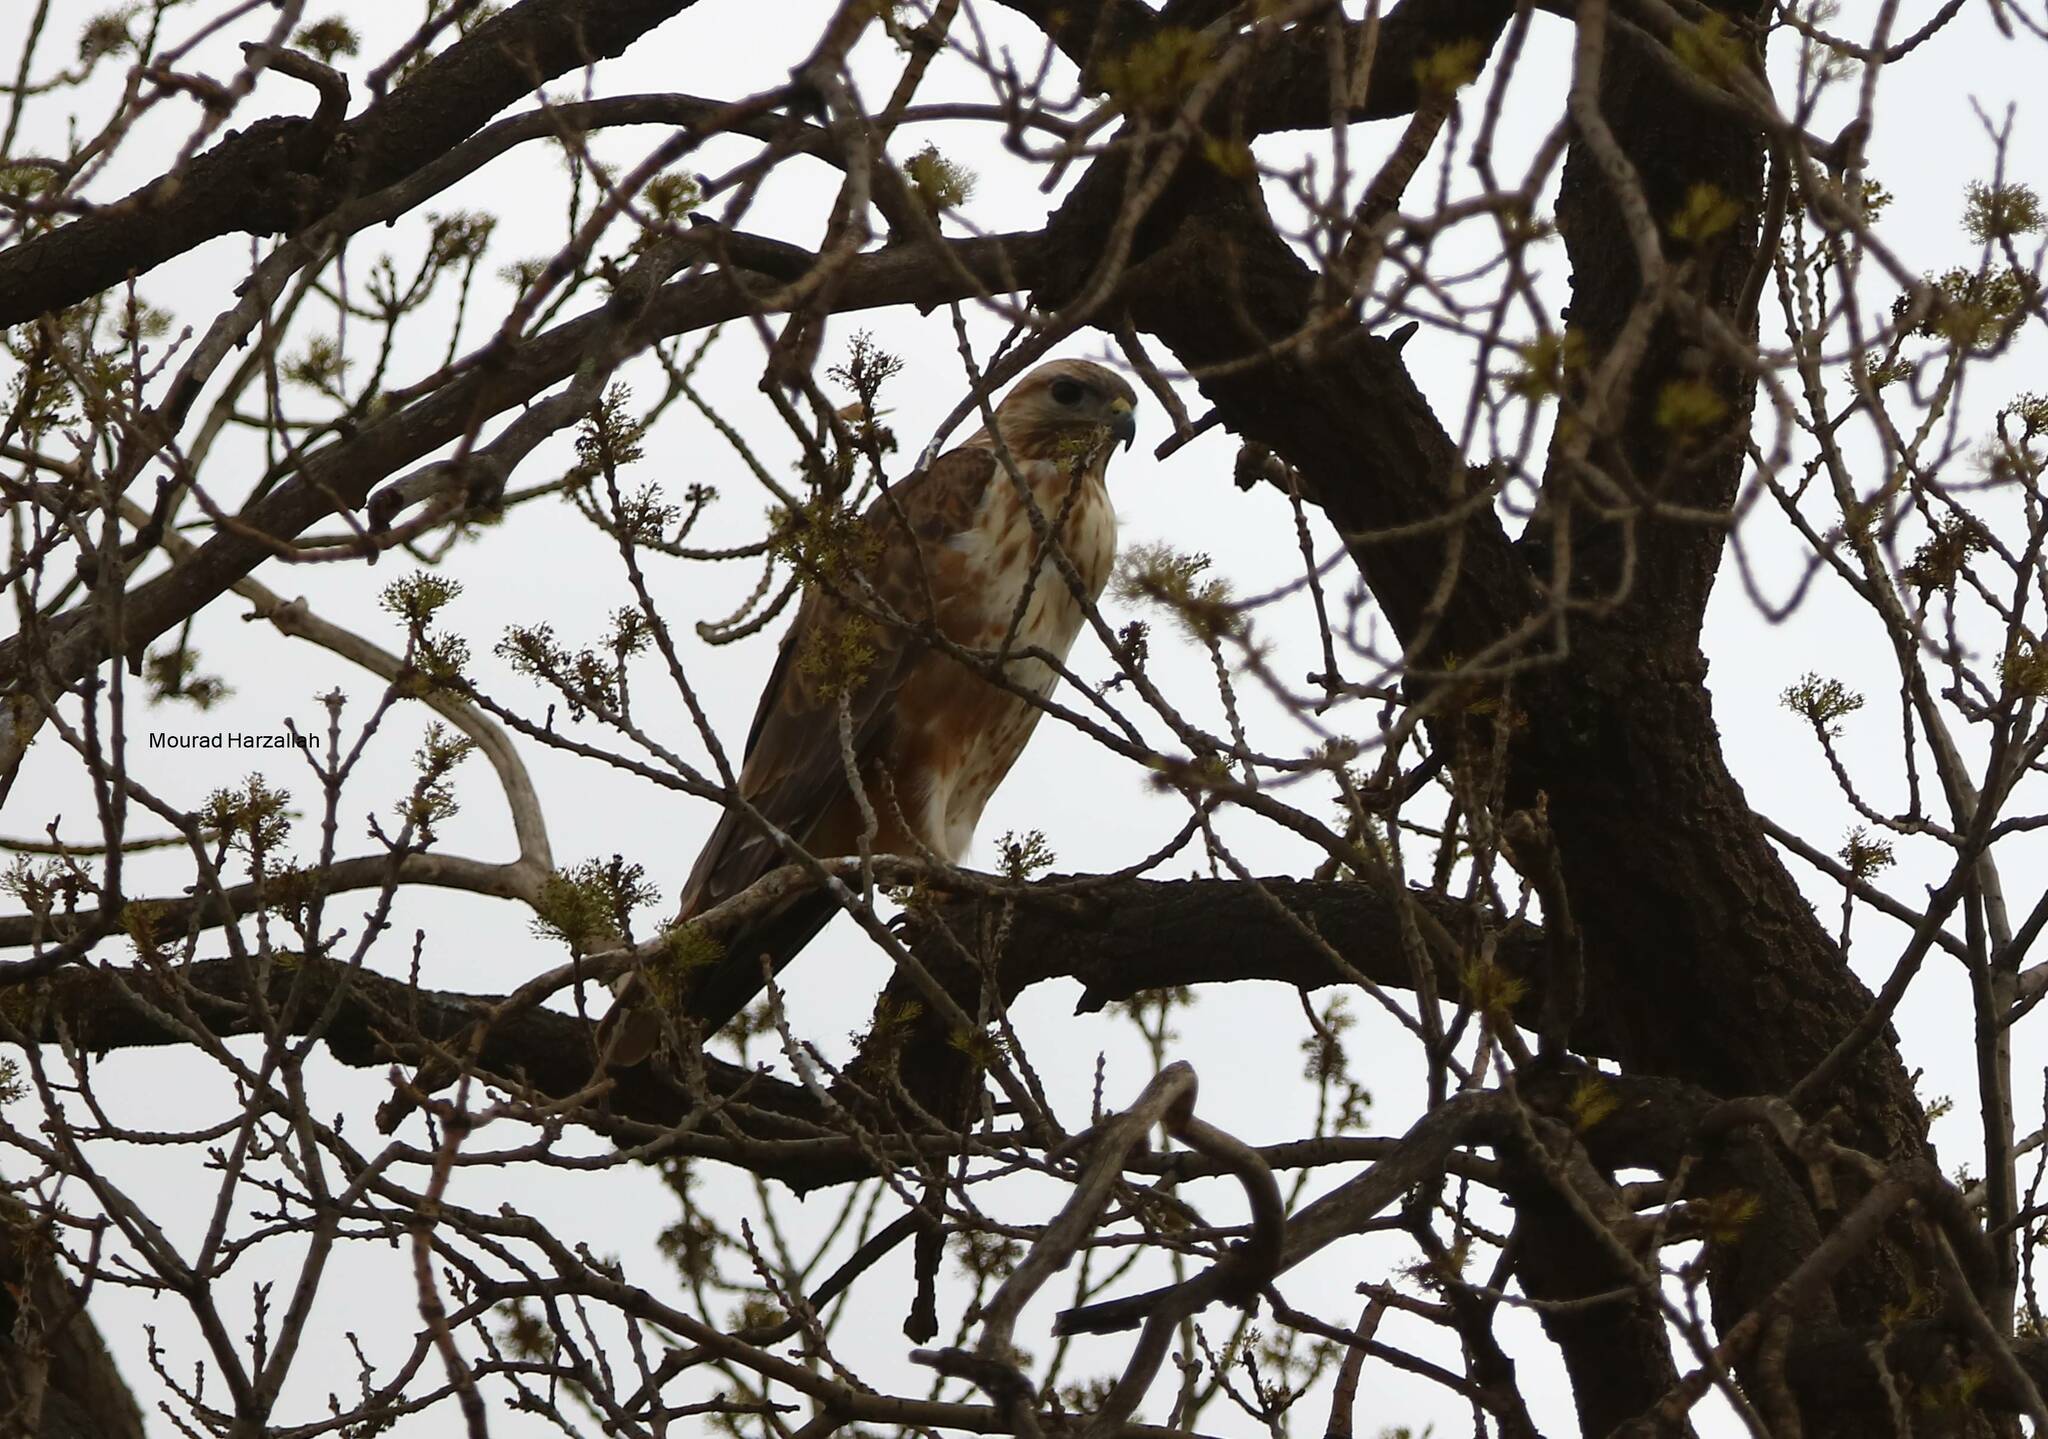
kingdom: Animalia
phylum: Chordata
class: Aves
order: Accipitriformes
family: Accipitridae
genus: Buteo
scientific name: Buteo rufinus
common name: Long-legged buzzard
